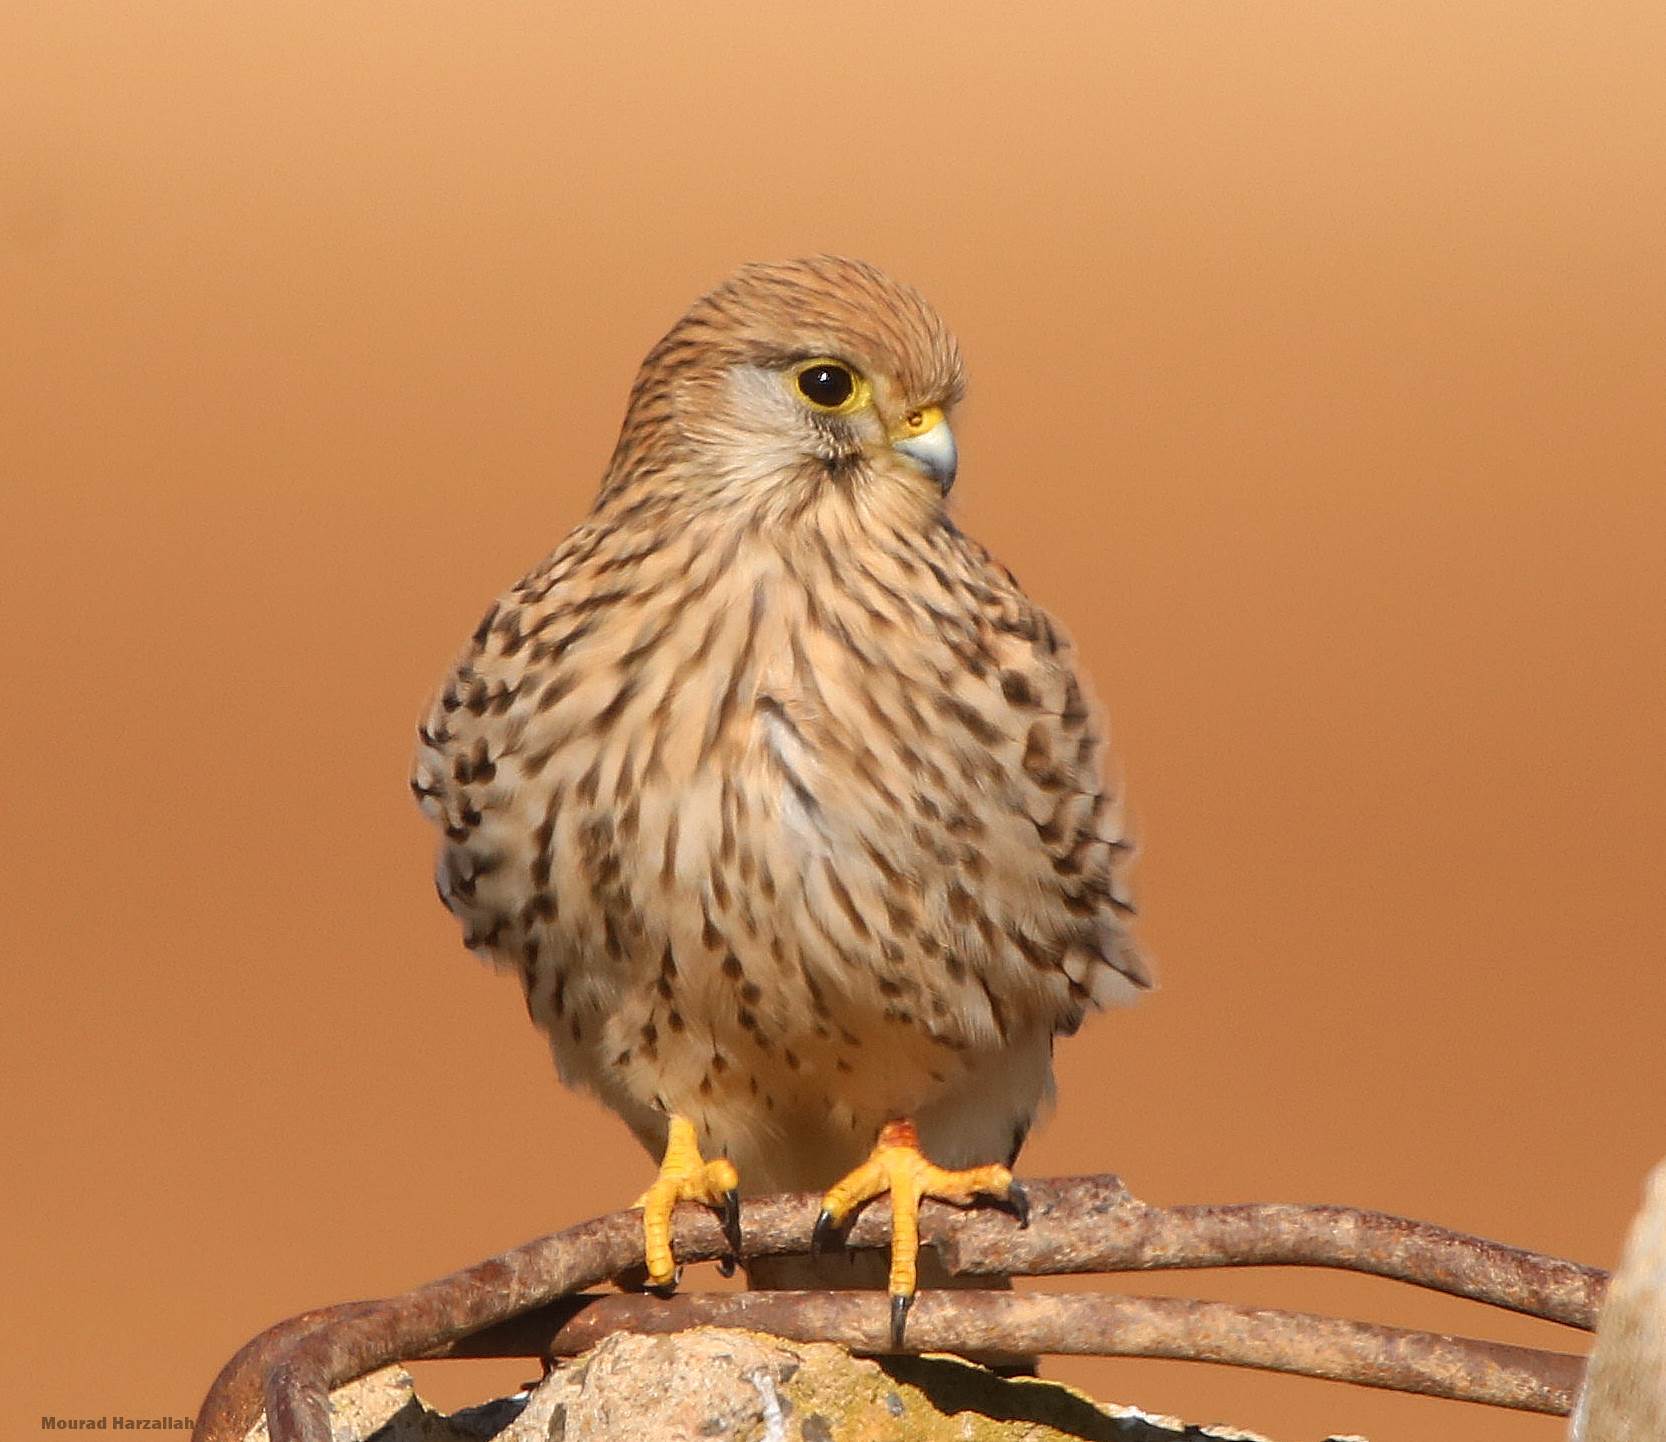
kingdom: Animalia
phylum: Chordata
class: Aves
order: Falconiformes
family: Falconidae
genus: Falco
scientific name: Falco tinnunculus
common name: Common kestrel
